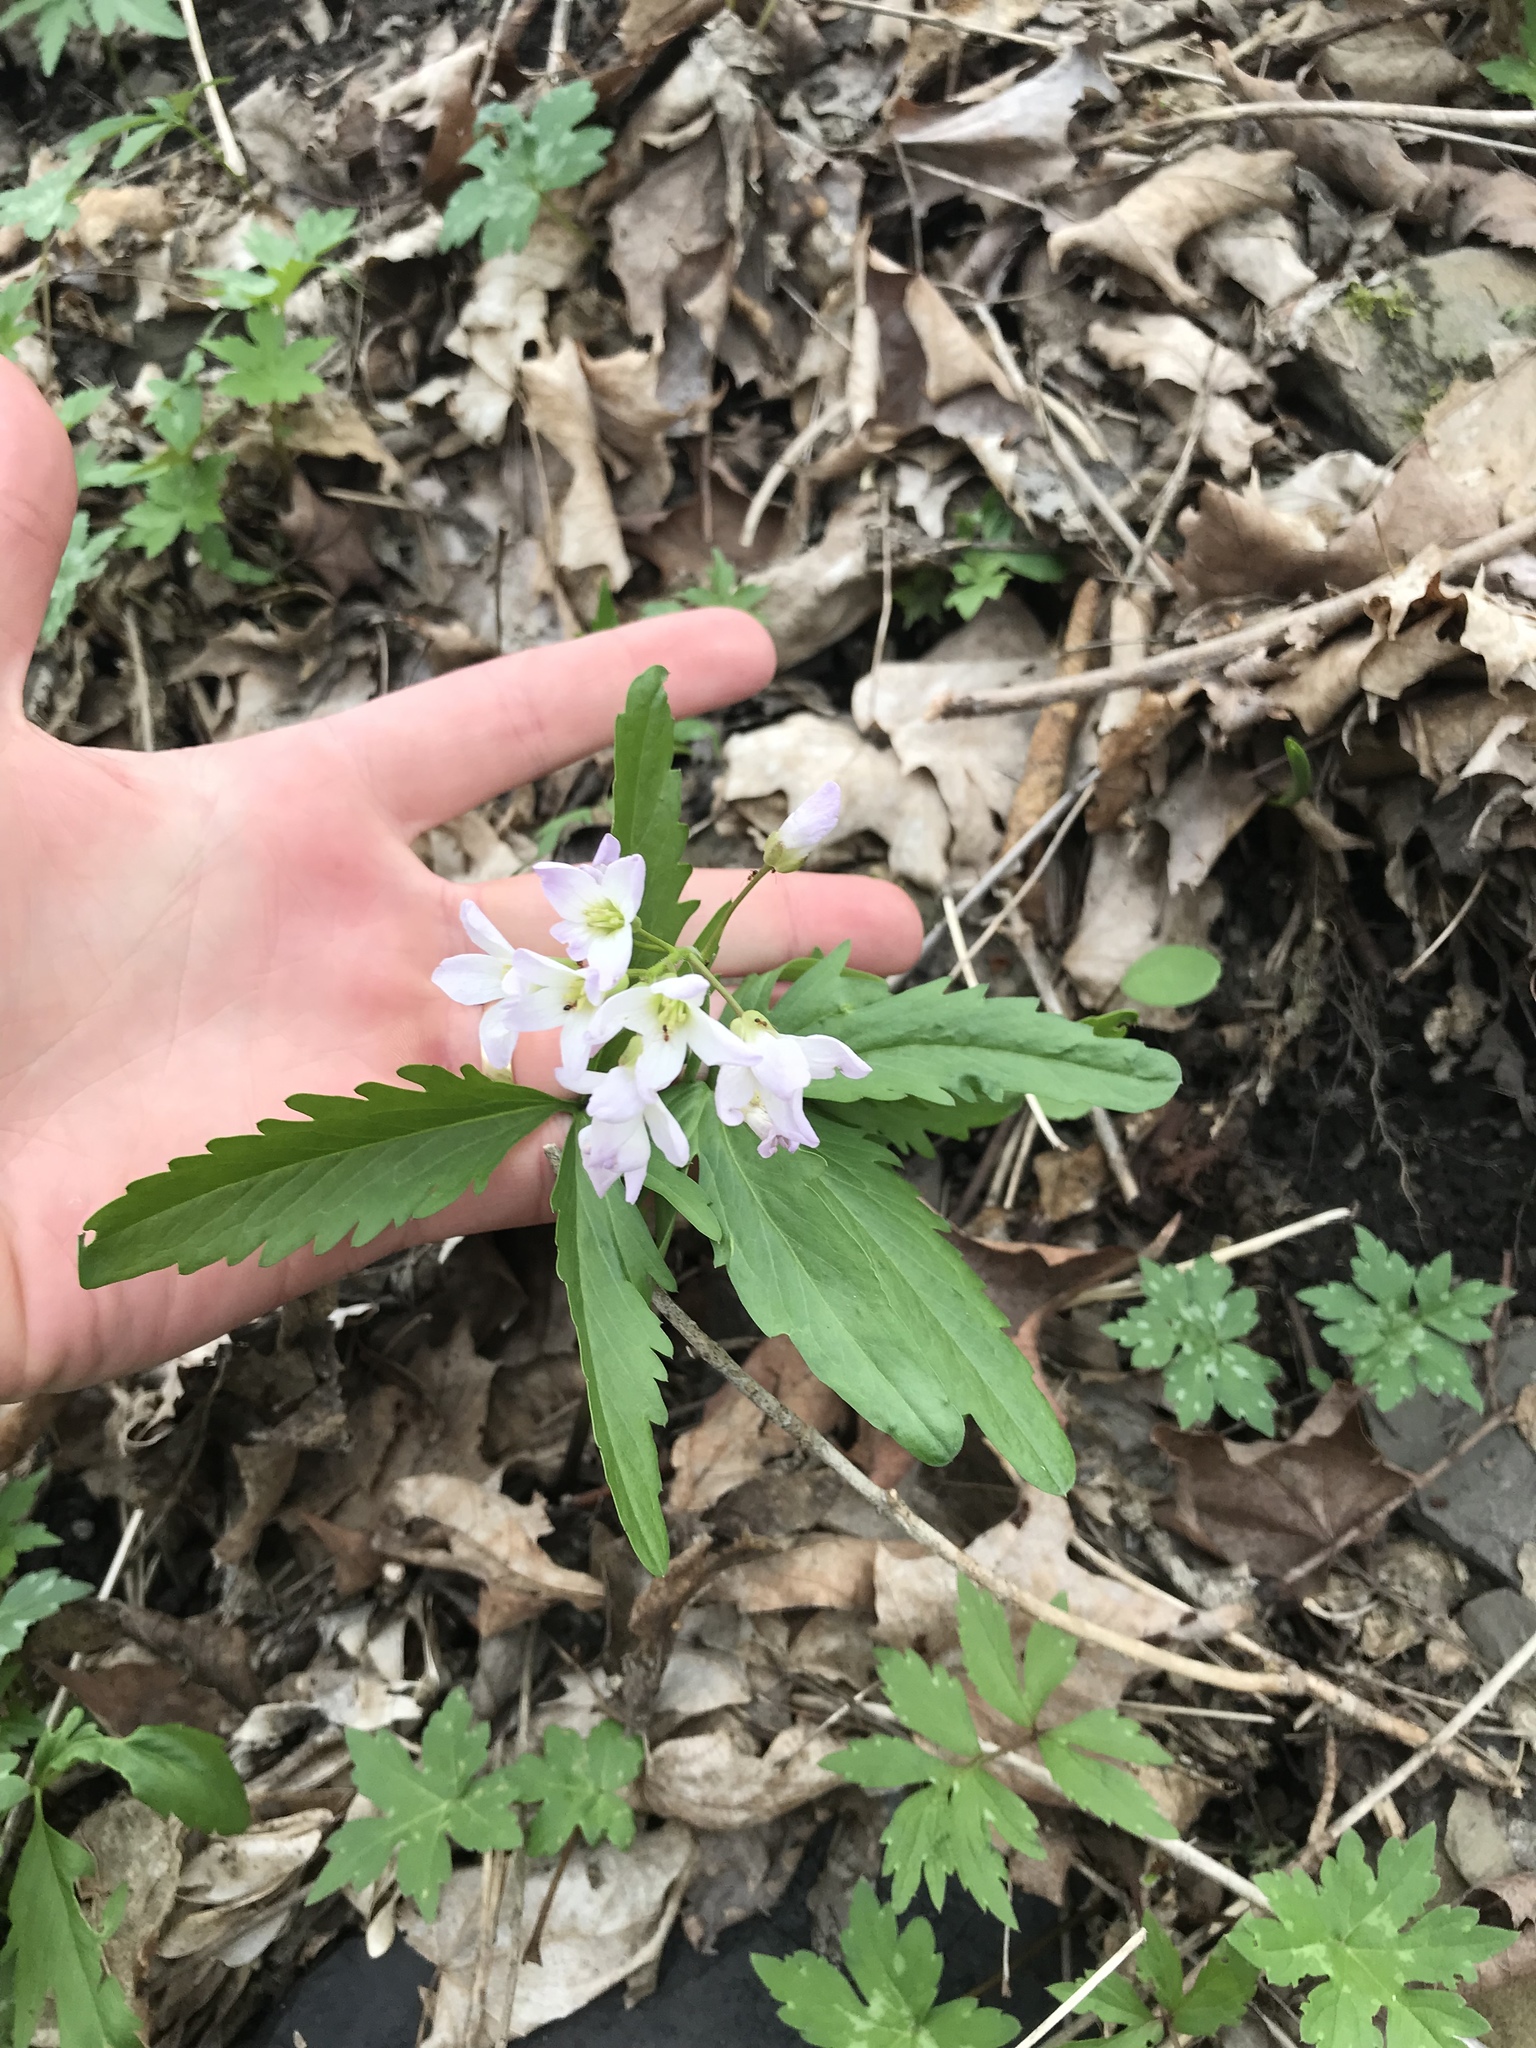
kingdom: Plantae
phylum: Tracheophyta
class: Magnoliopsida
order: Brassicales
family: Brassicaceae
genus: Cardamine
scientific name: Cardamine concatenata
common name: Cut-leaf toothcup
